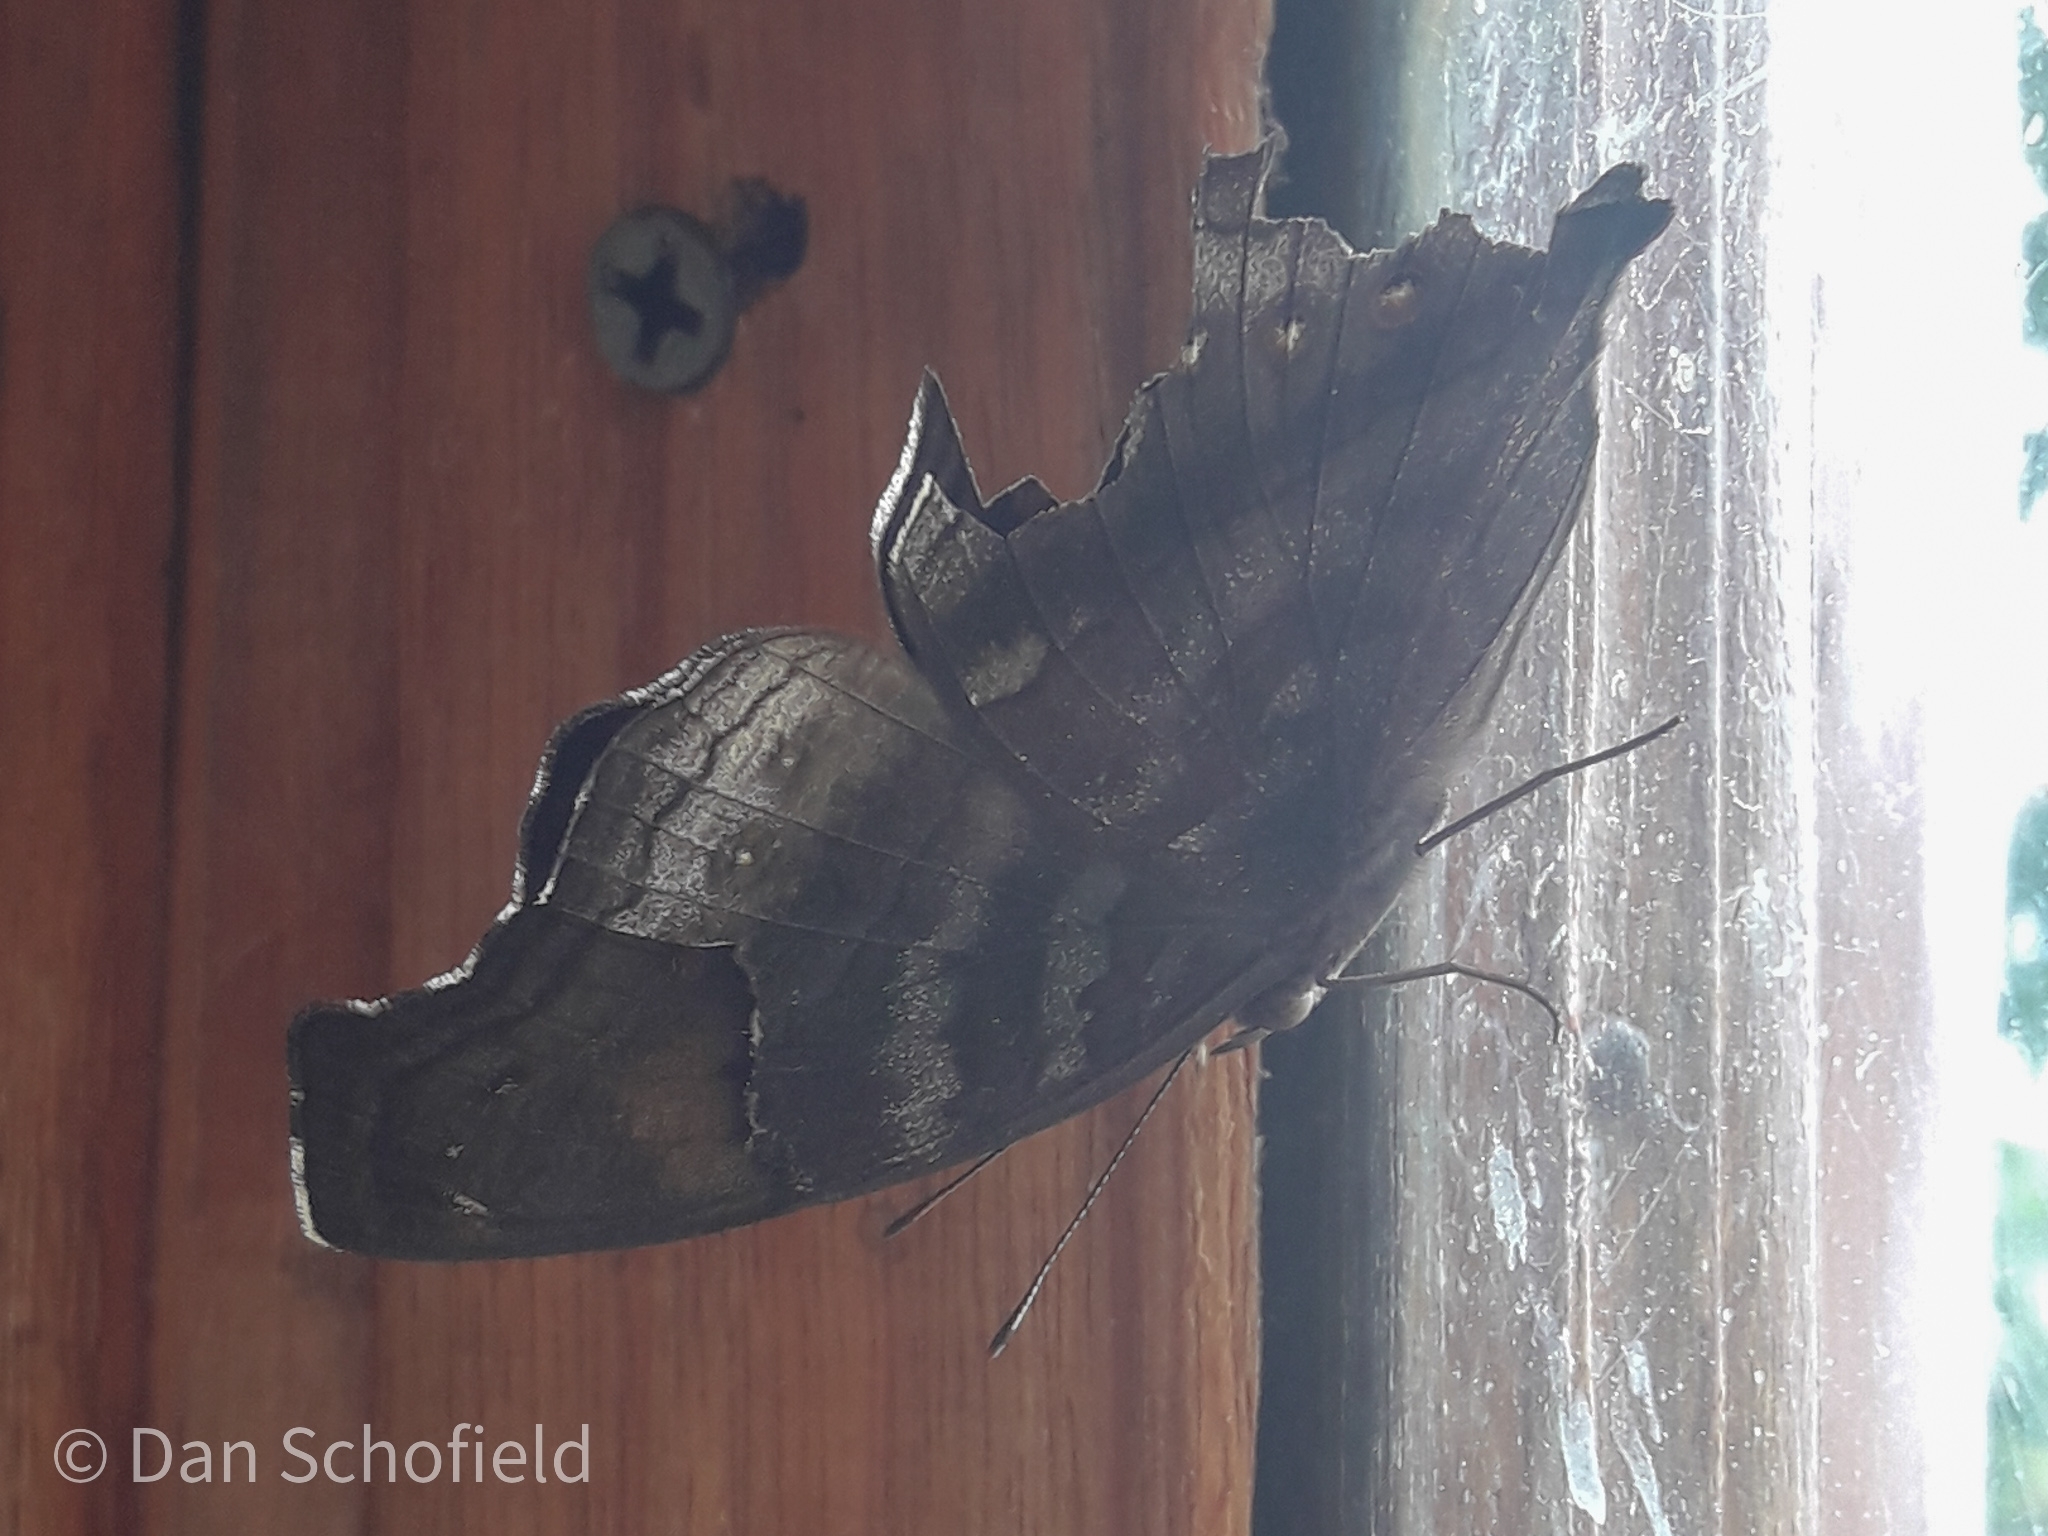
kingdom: Animalia
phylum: Arthropoda
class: Insecta
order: Lepidoptera
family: Nymphalidae
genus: Junonia
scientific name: Junonia
